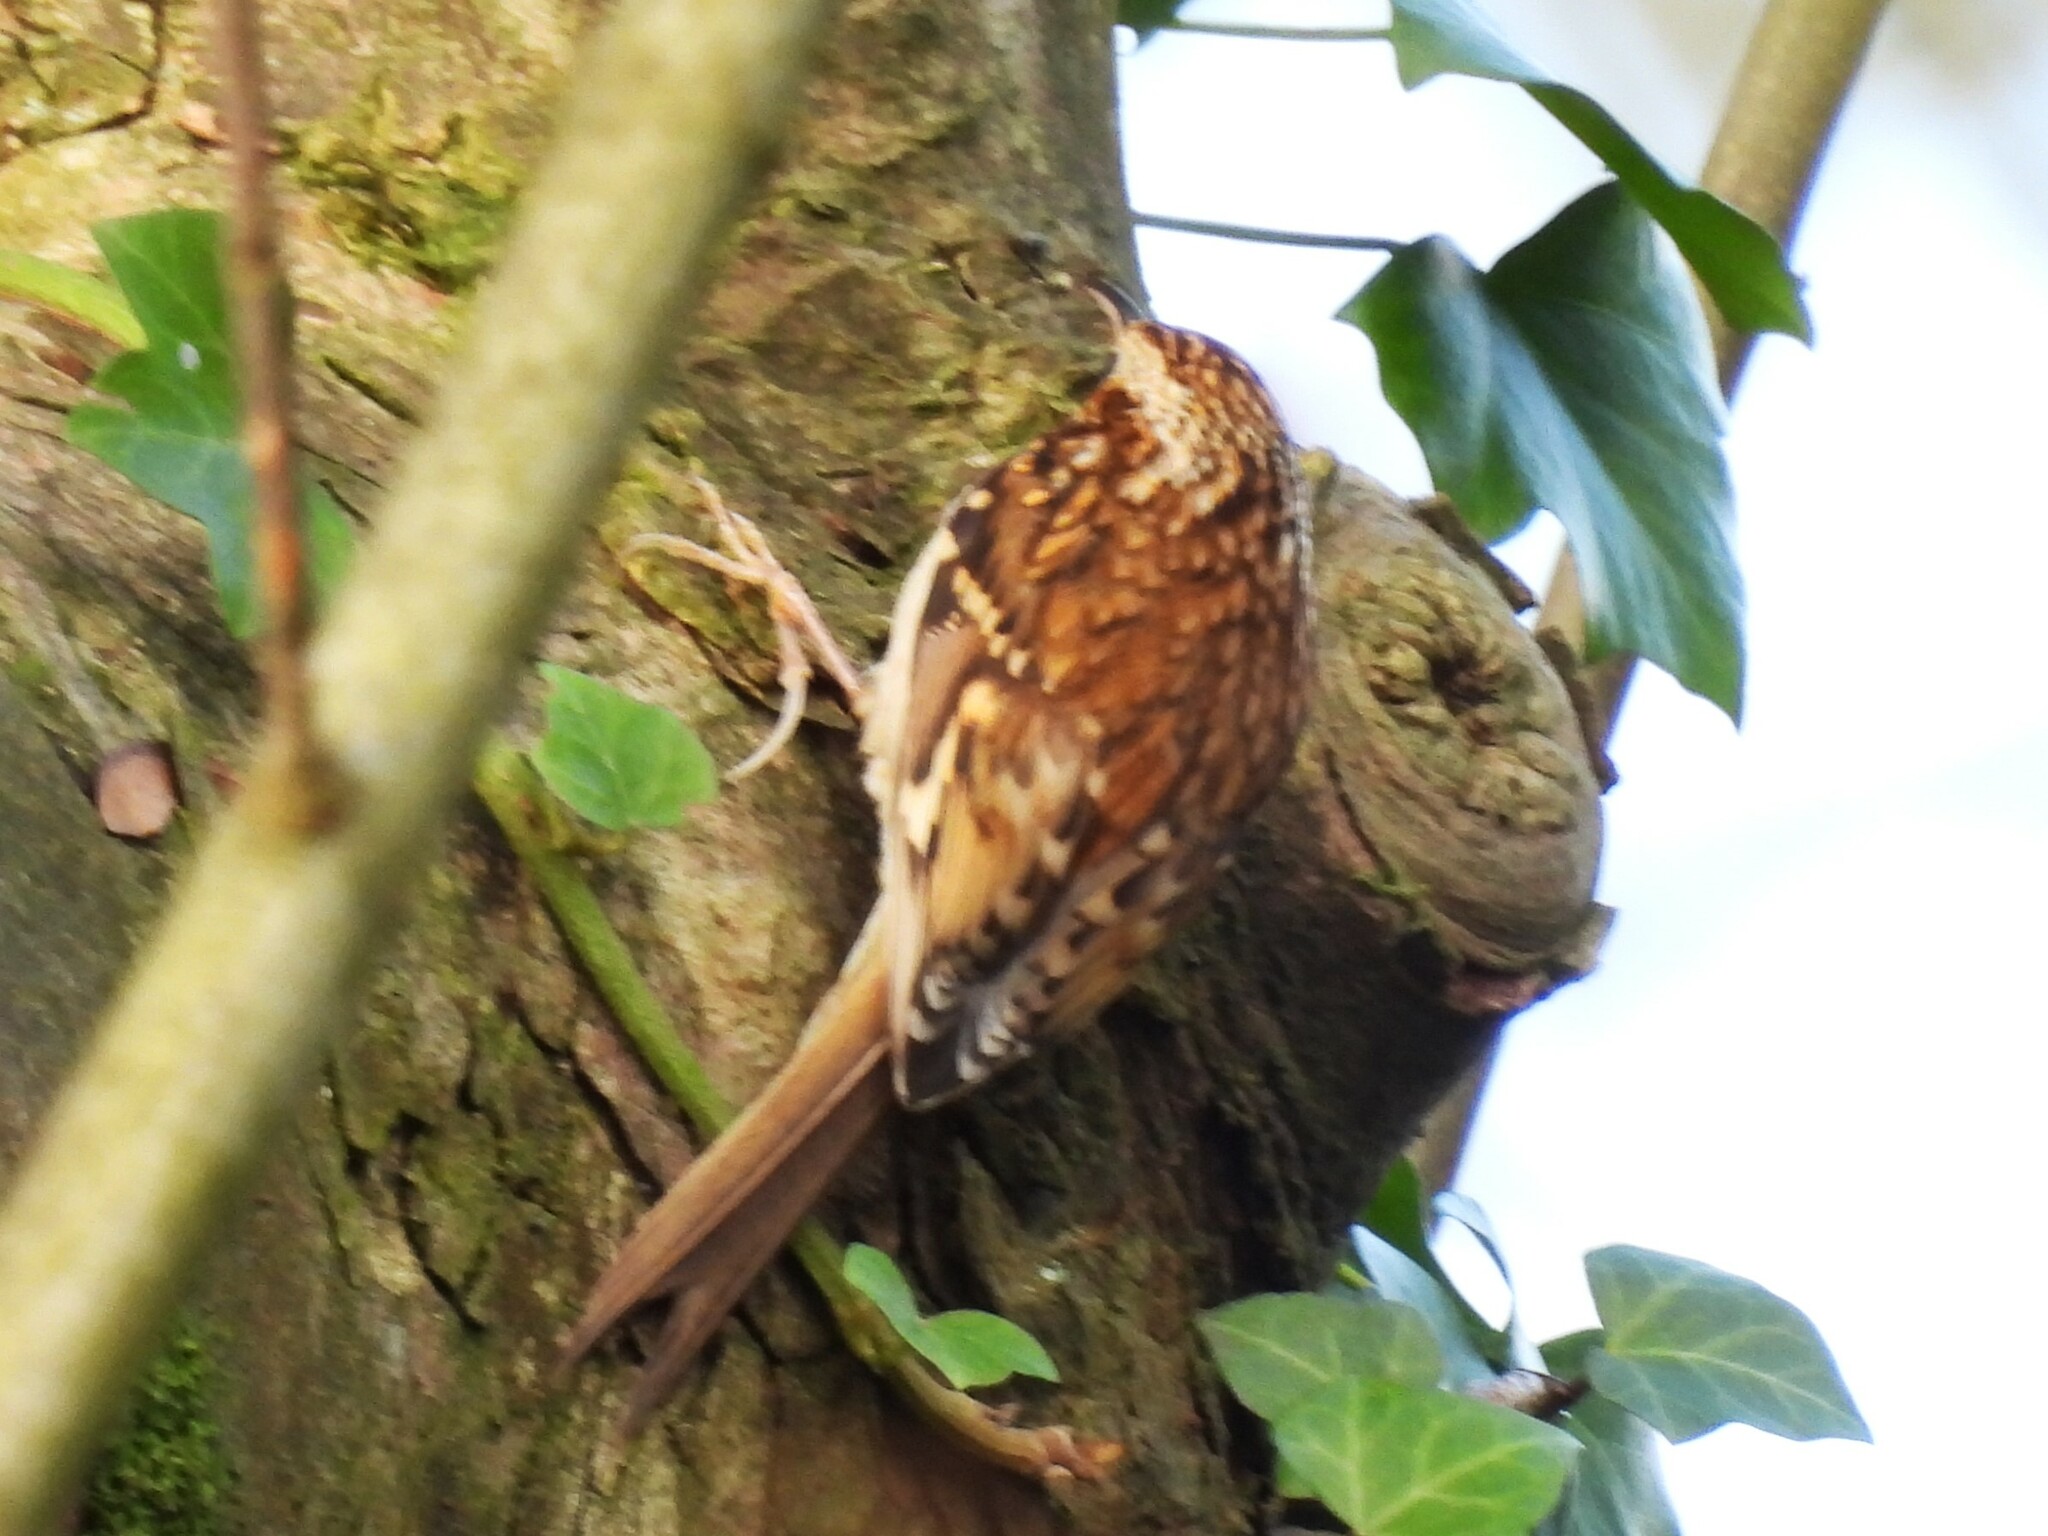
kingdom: Animalia
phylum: Chordata
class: Aves
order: Passeriformes
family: Certhiidae
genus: Certhia
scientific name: Certhia familiaris
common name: Eurasian treecreeper
